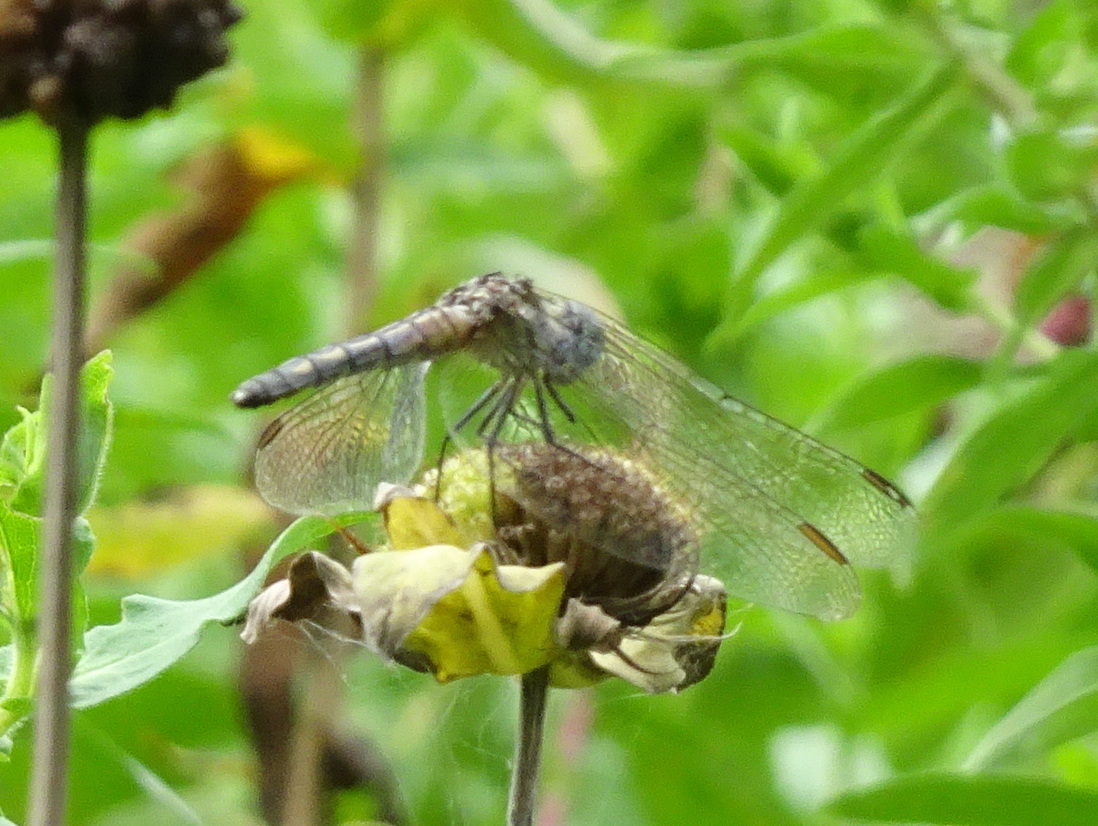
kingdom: Animalia
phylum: Arthropoda
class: Insecta
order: Odonata
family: Libellulidae
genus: Pachydiplax
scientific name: Pachydiplax longipennis
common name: Blue dasher
